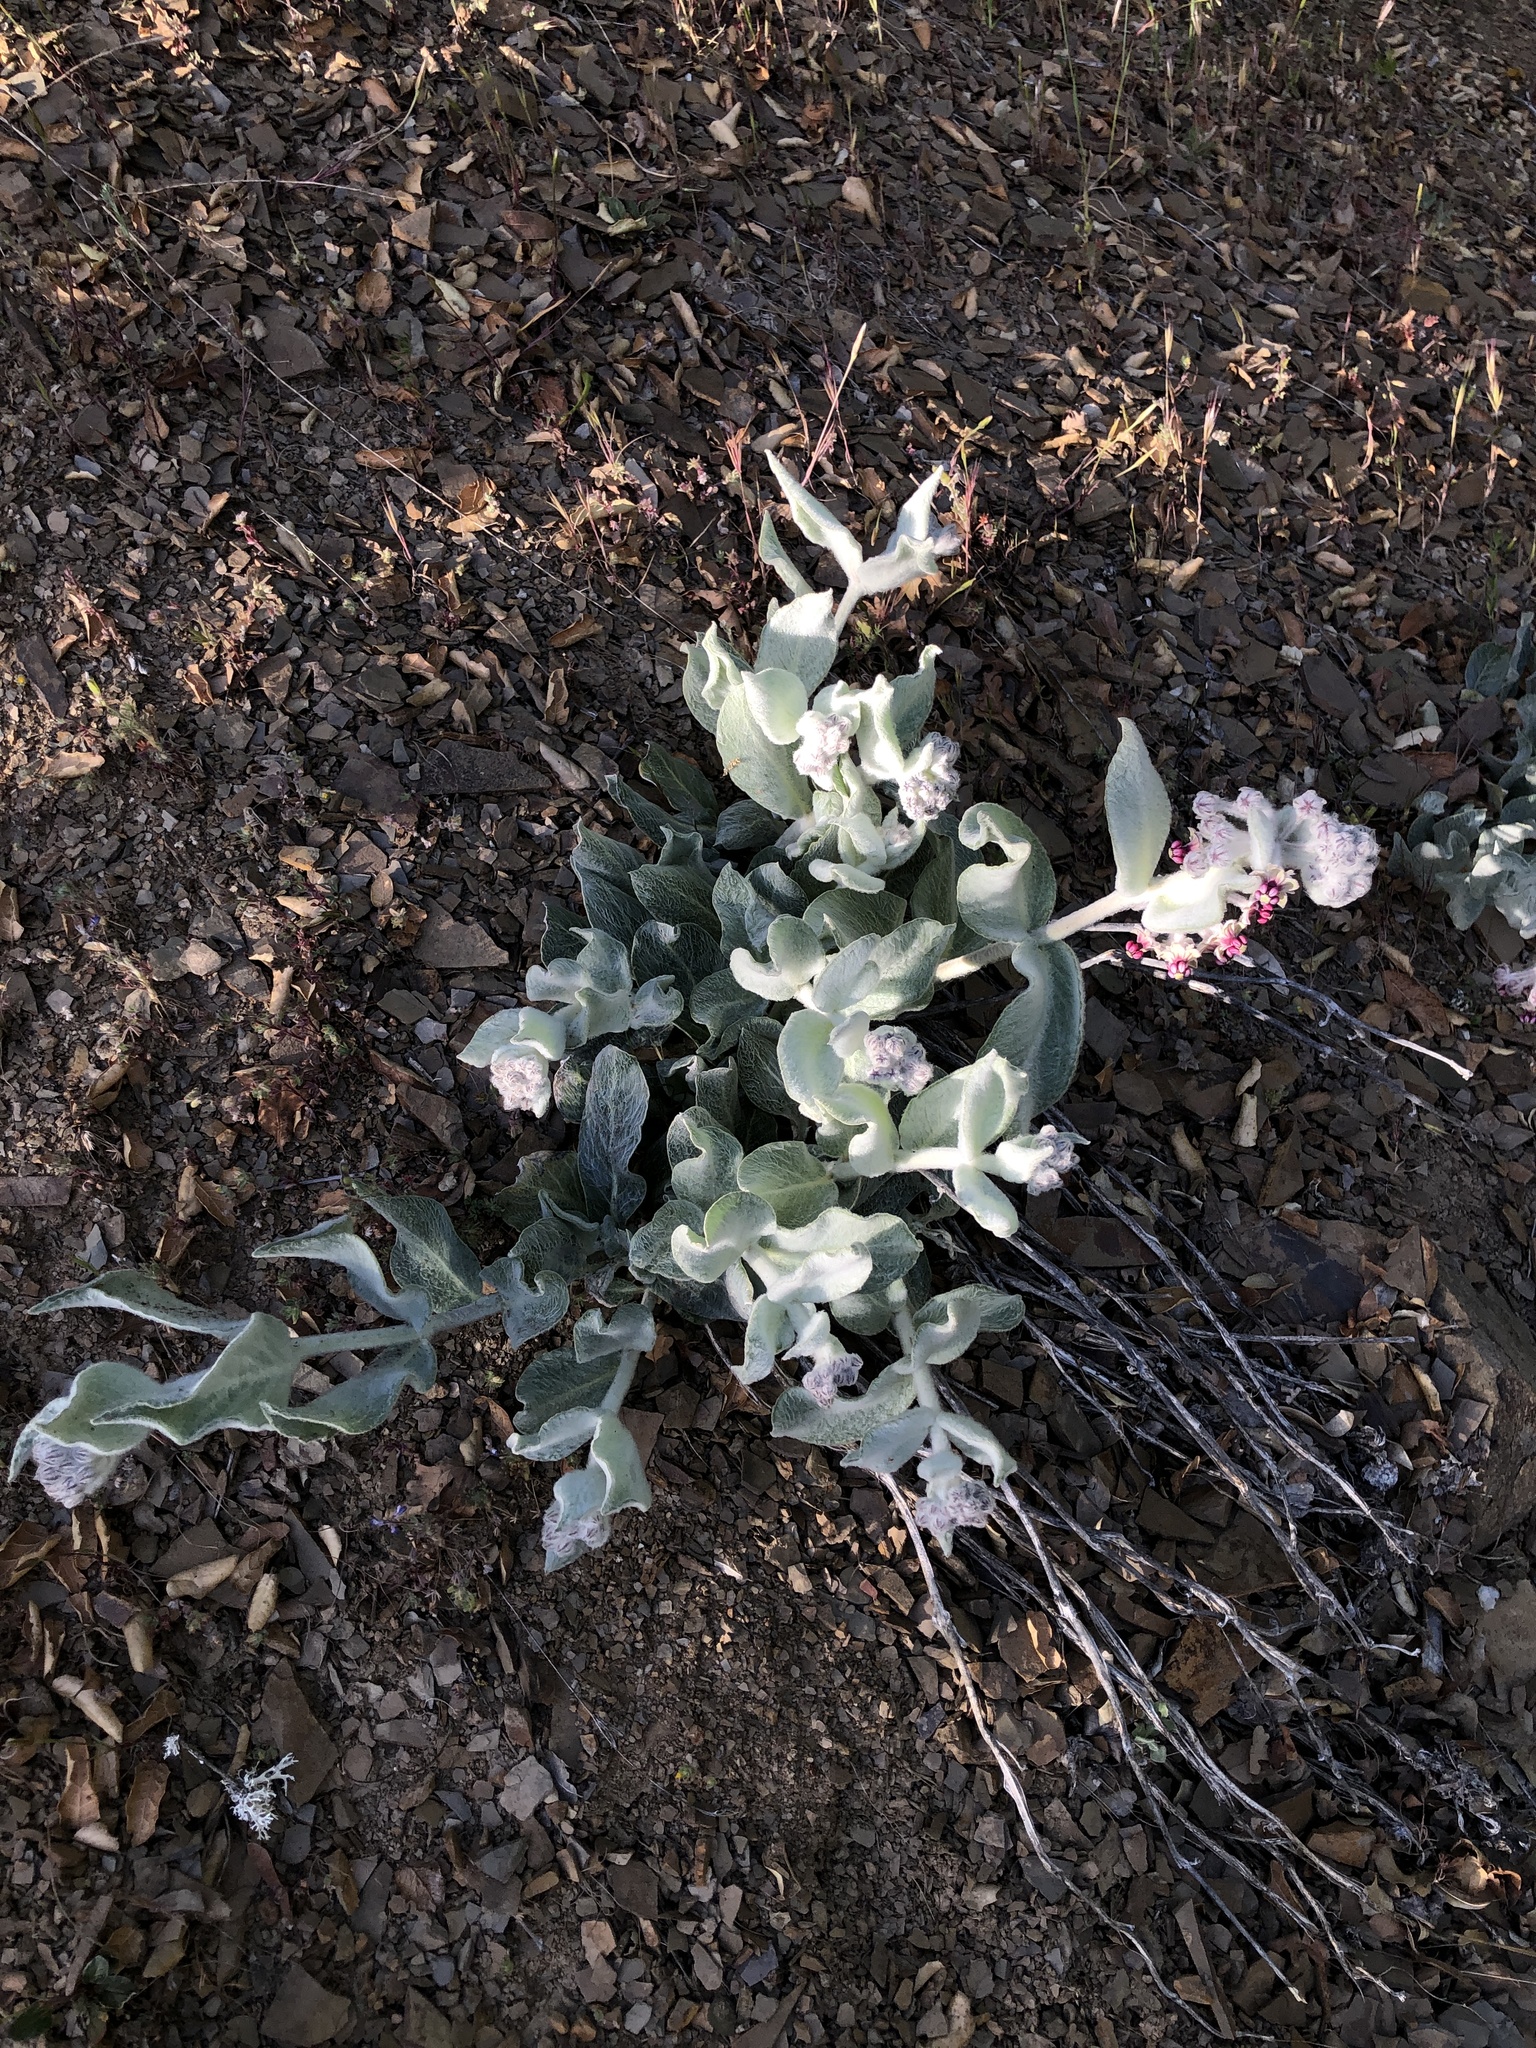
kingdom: Plantae
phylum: Tracheophyta
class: Magnoliopsida
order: Gentianales
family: Apocynaceae
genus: Asclepias
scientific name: Asclepias californica
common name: California milkweed
